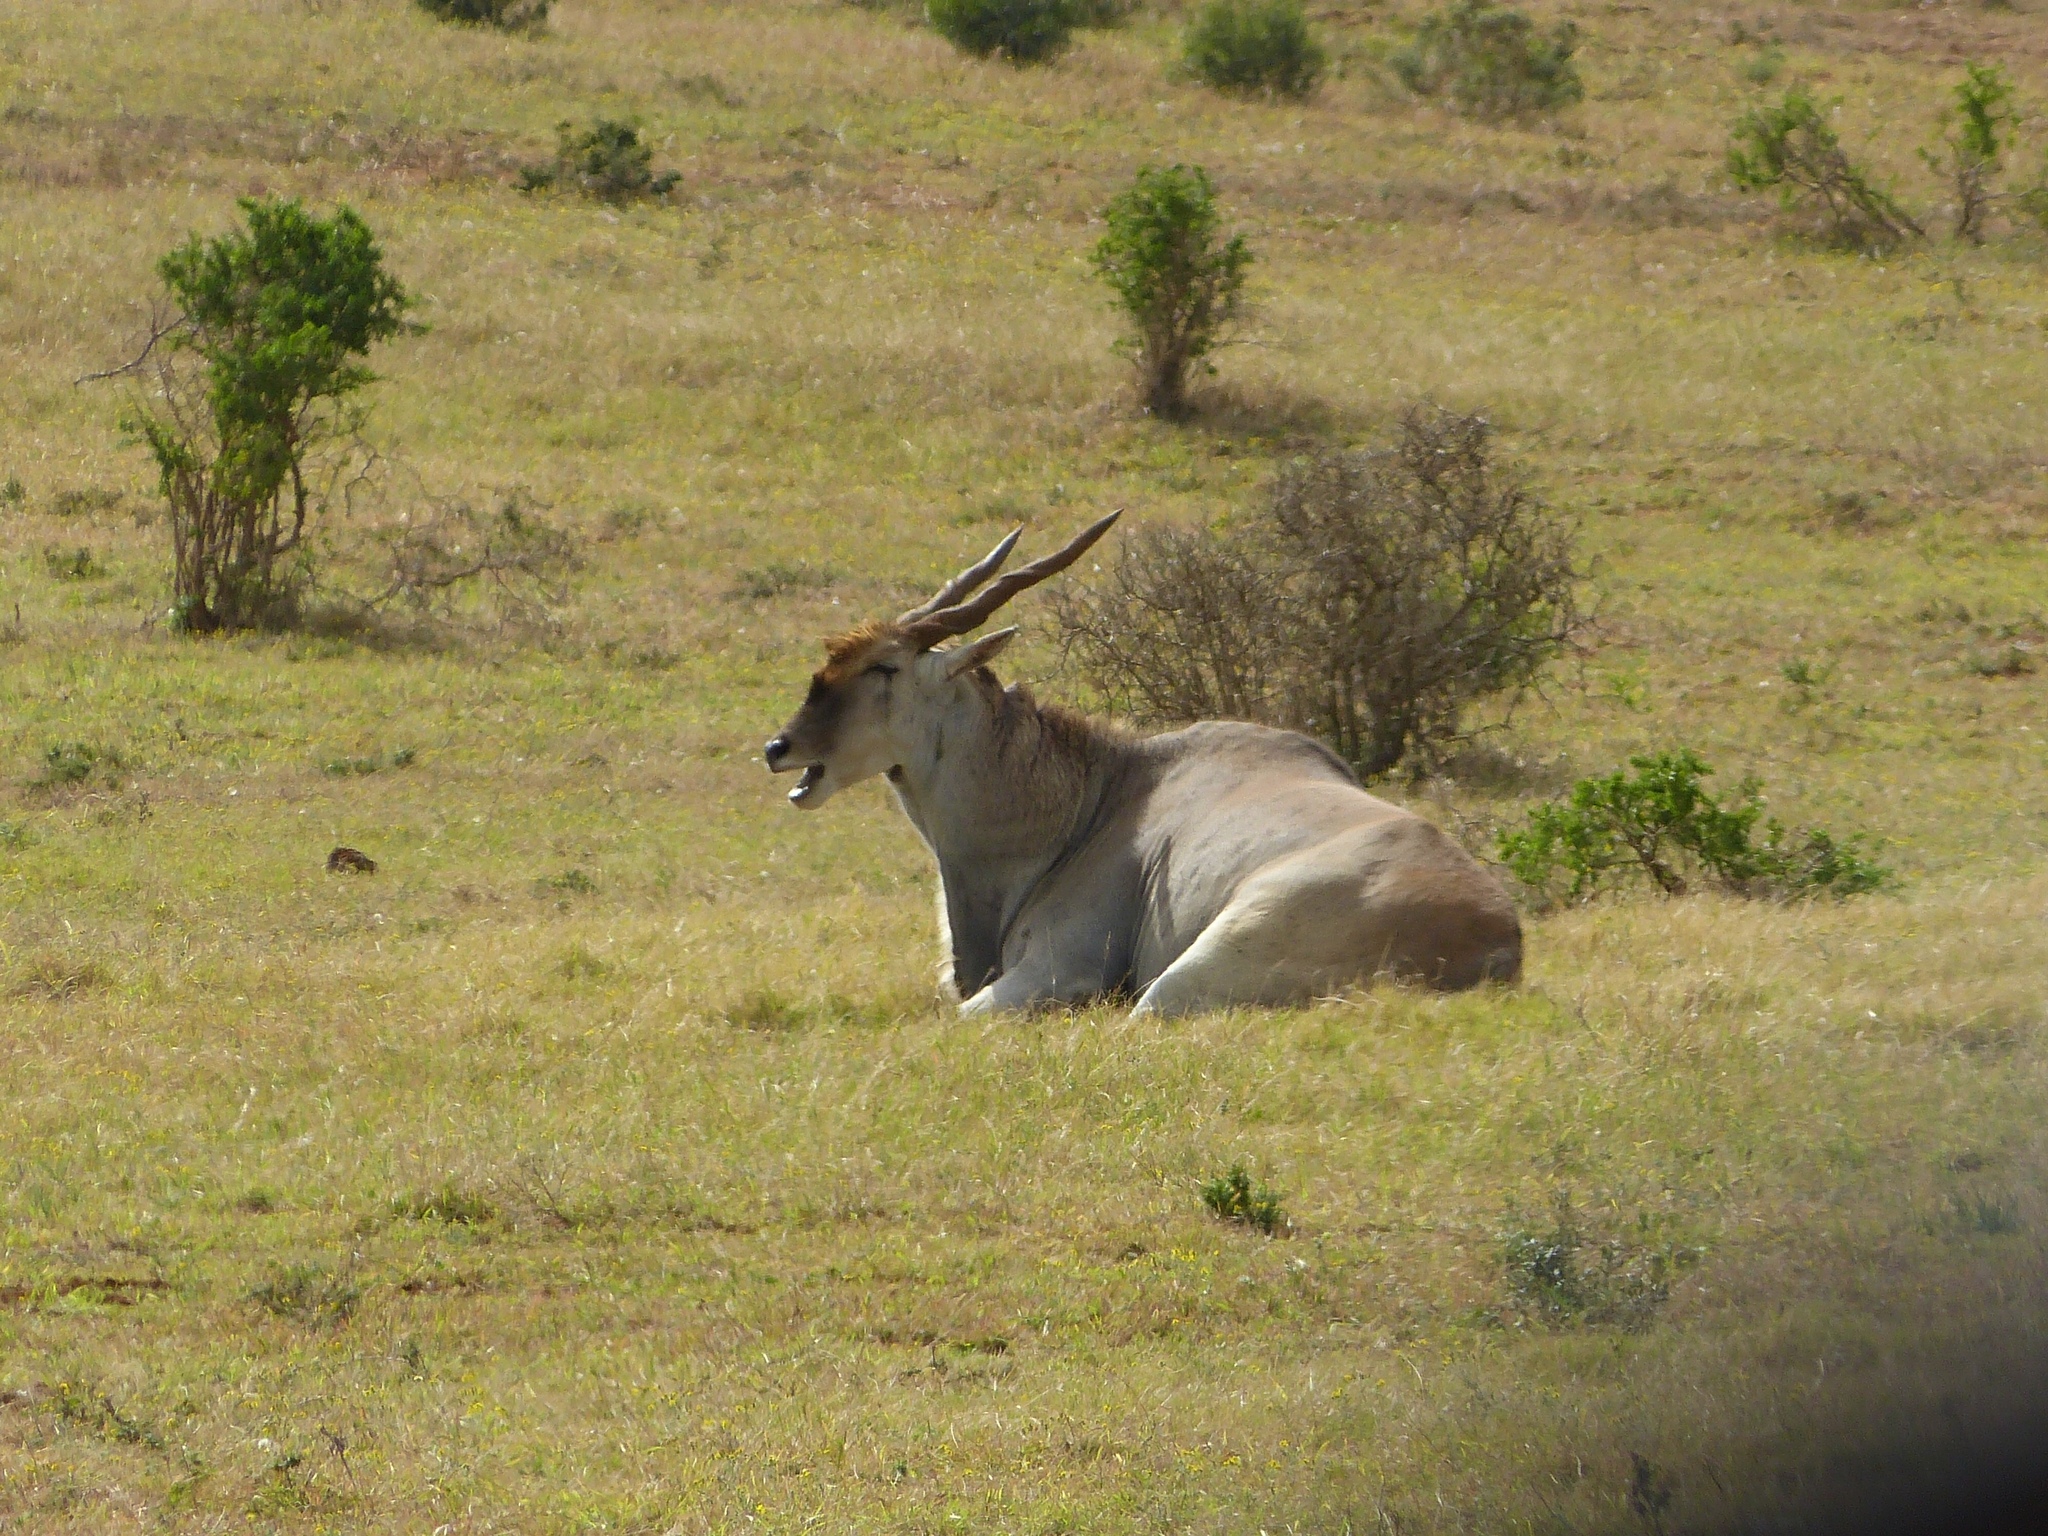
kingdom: Animalia
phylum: Chordata
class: Mammalia
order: Artiodactyla
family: Bovidae
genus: Taurotragus
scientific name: Taurotragus oryx
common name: Common eland
